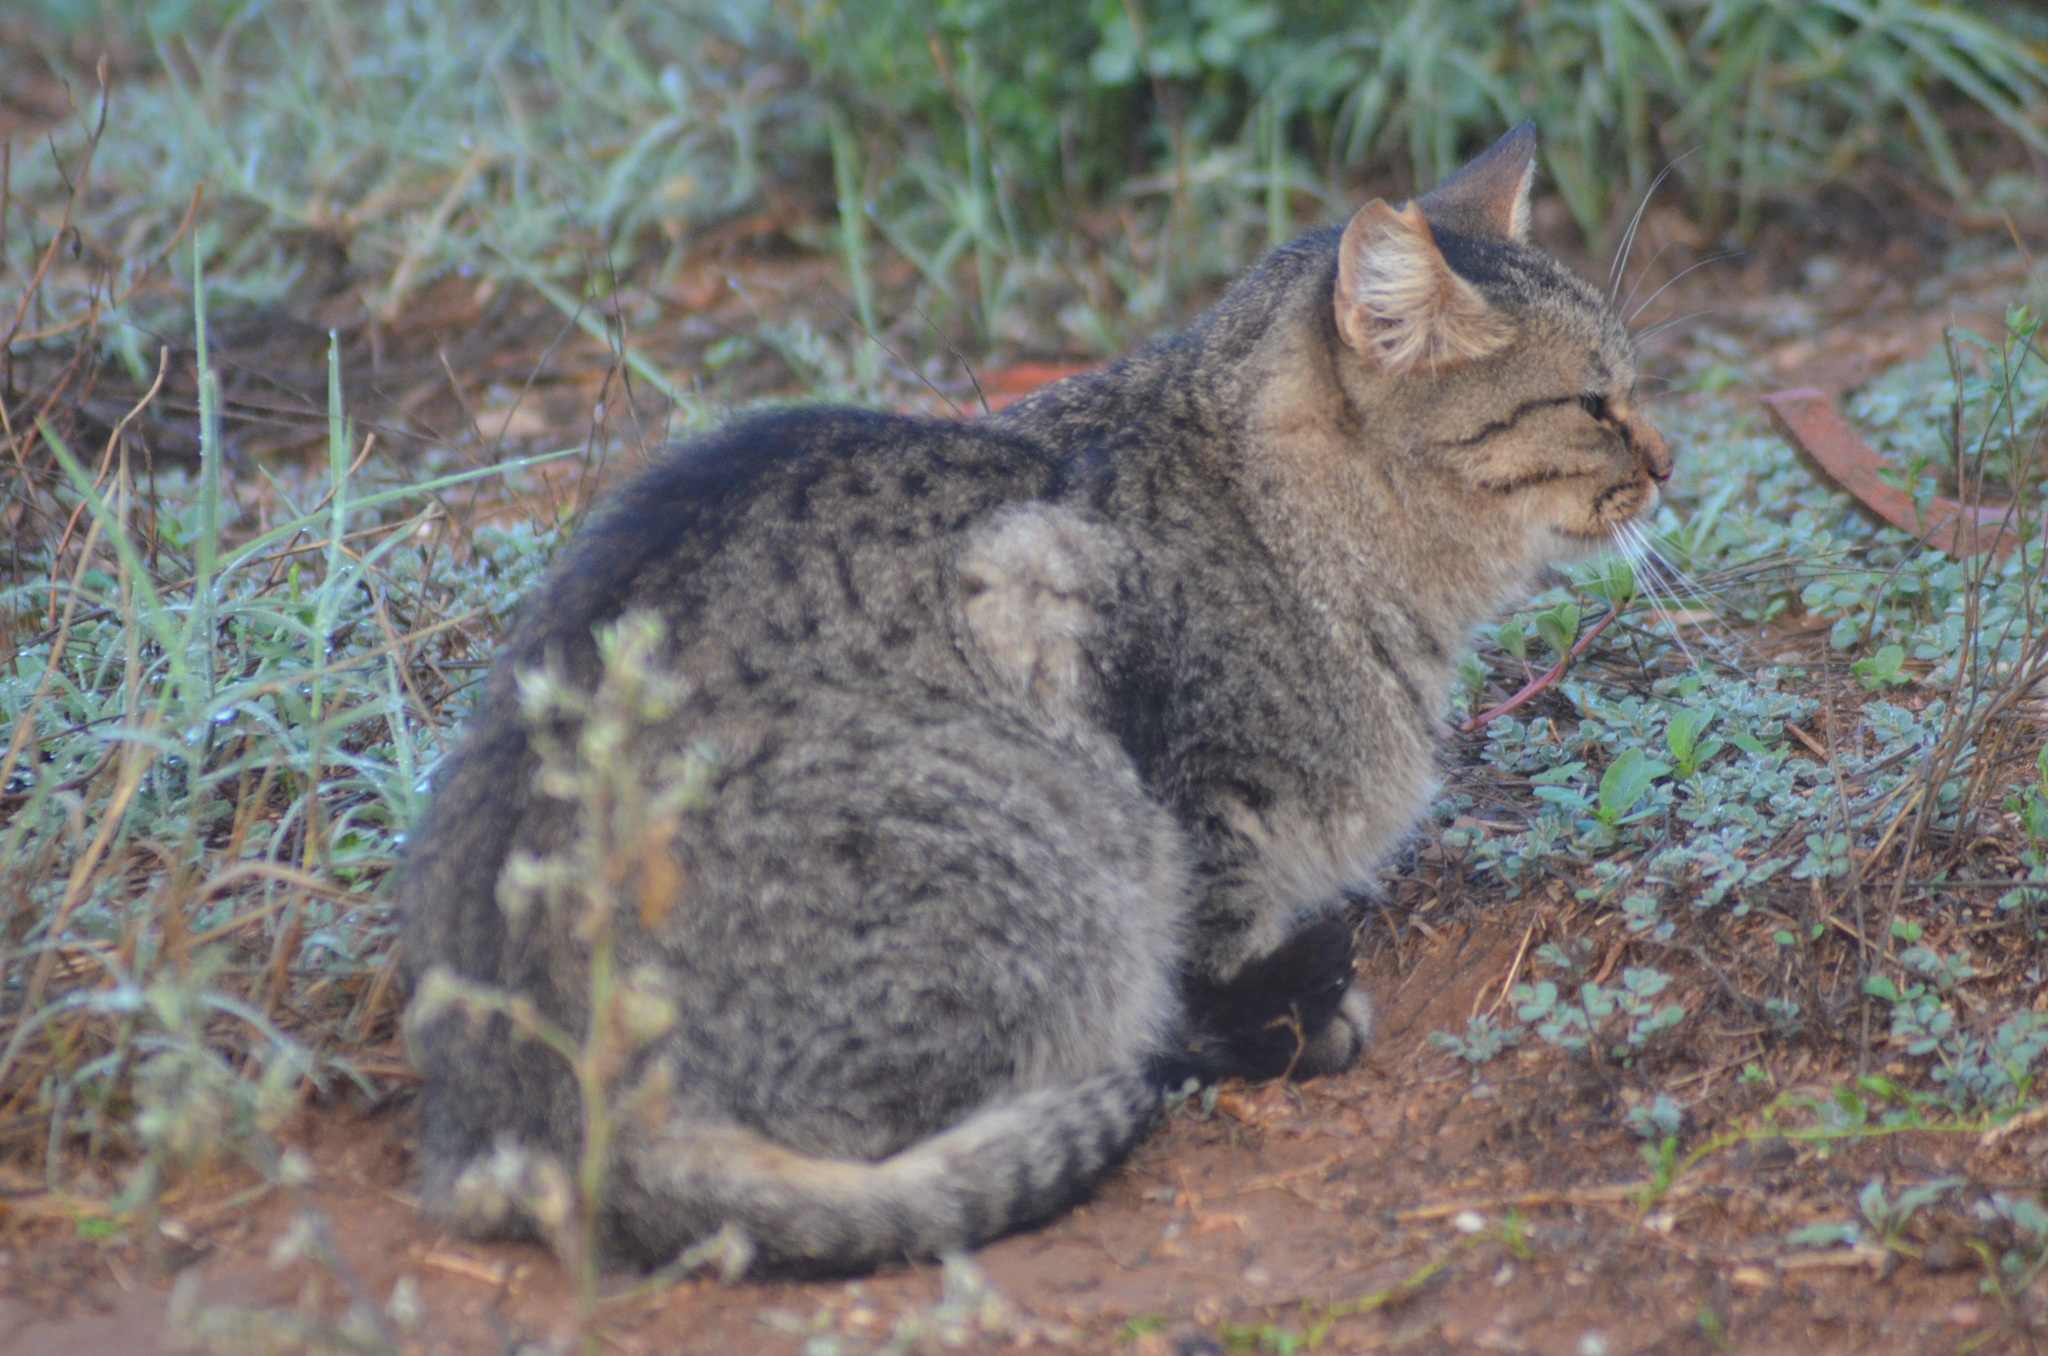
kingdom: Animalia
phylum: Chordata
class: Mammalia
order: Carnivora
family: Felidae
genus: Felis
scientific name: Felis catus
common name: Domestic cat
